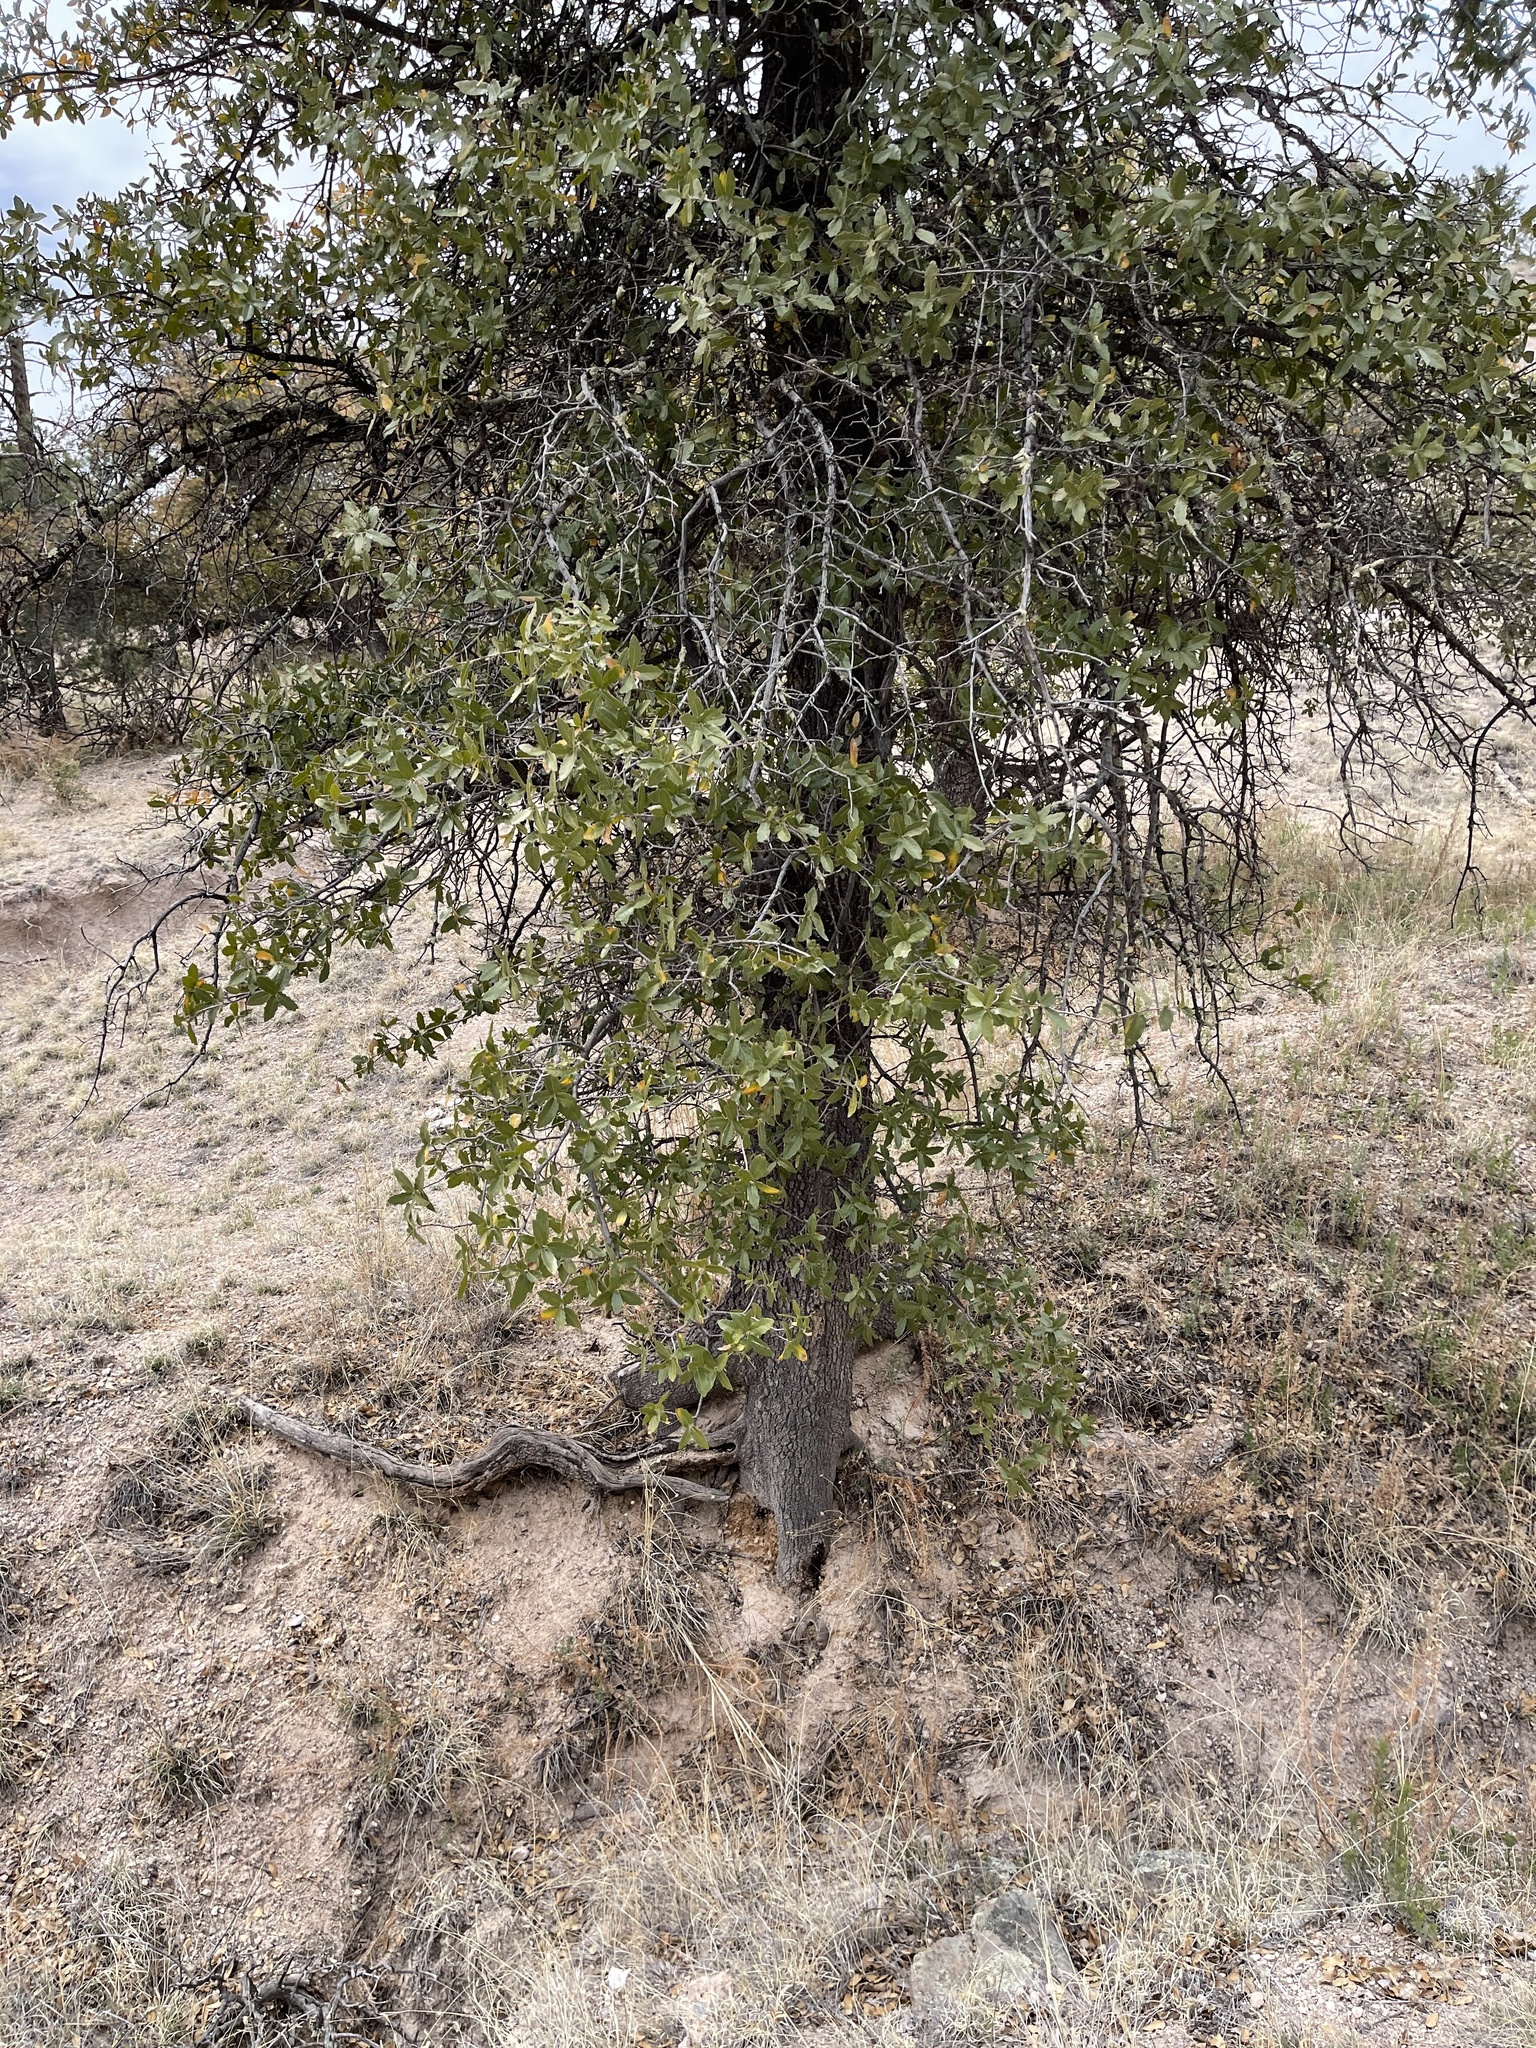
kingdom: Plantae
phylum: Tracheophyta
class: Magnoliopsida
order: Fagales
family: Fagaceae
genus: Quercus
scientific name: Quercus emoryi
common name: Emory oak
